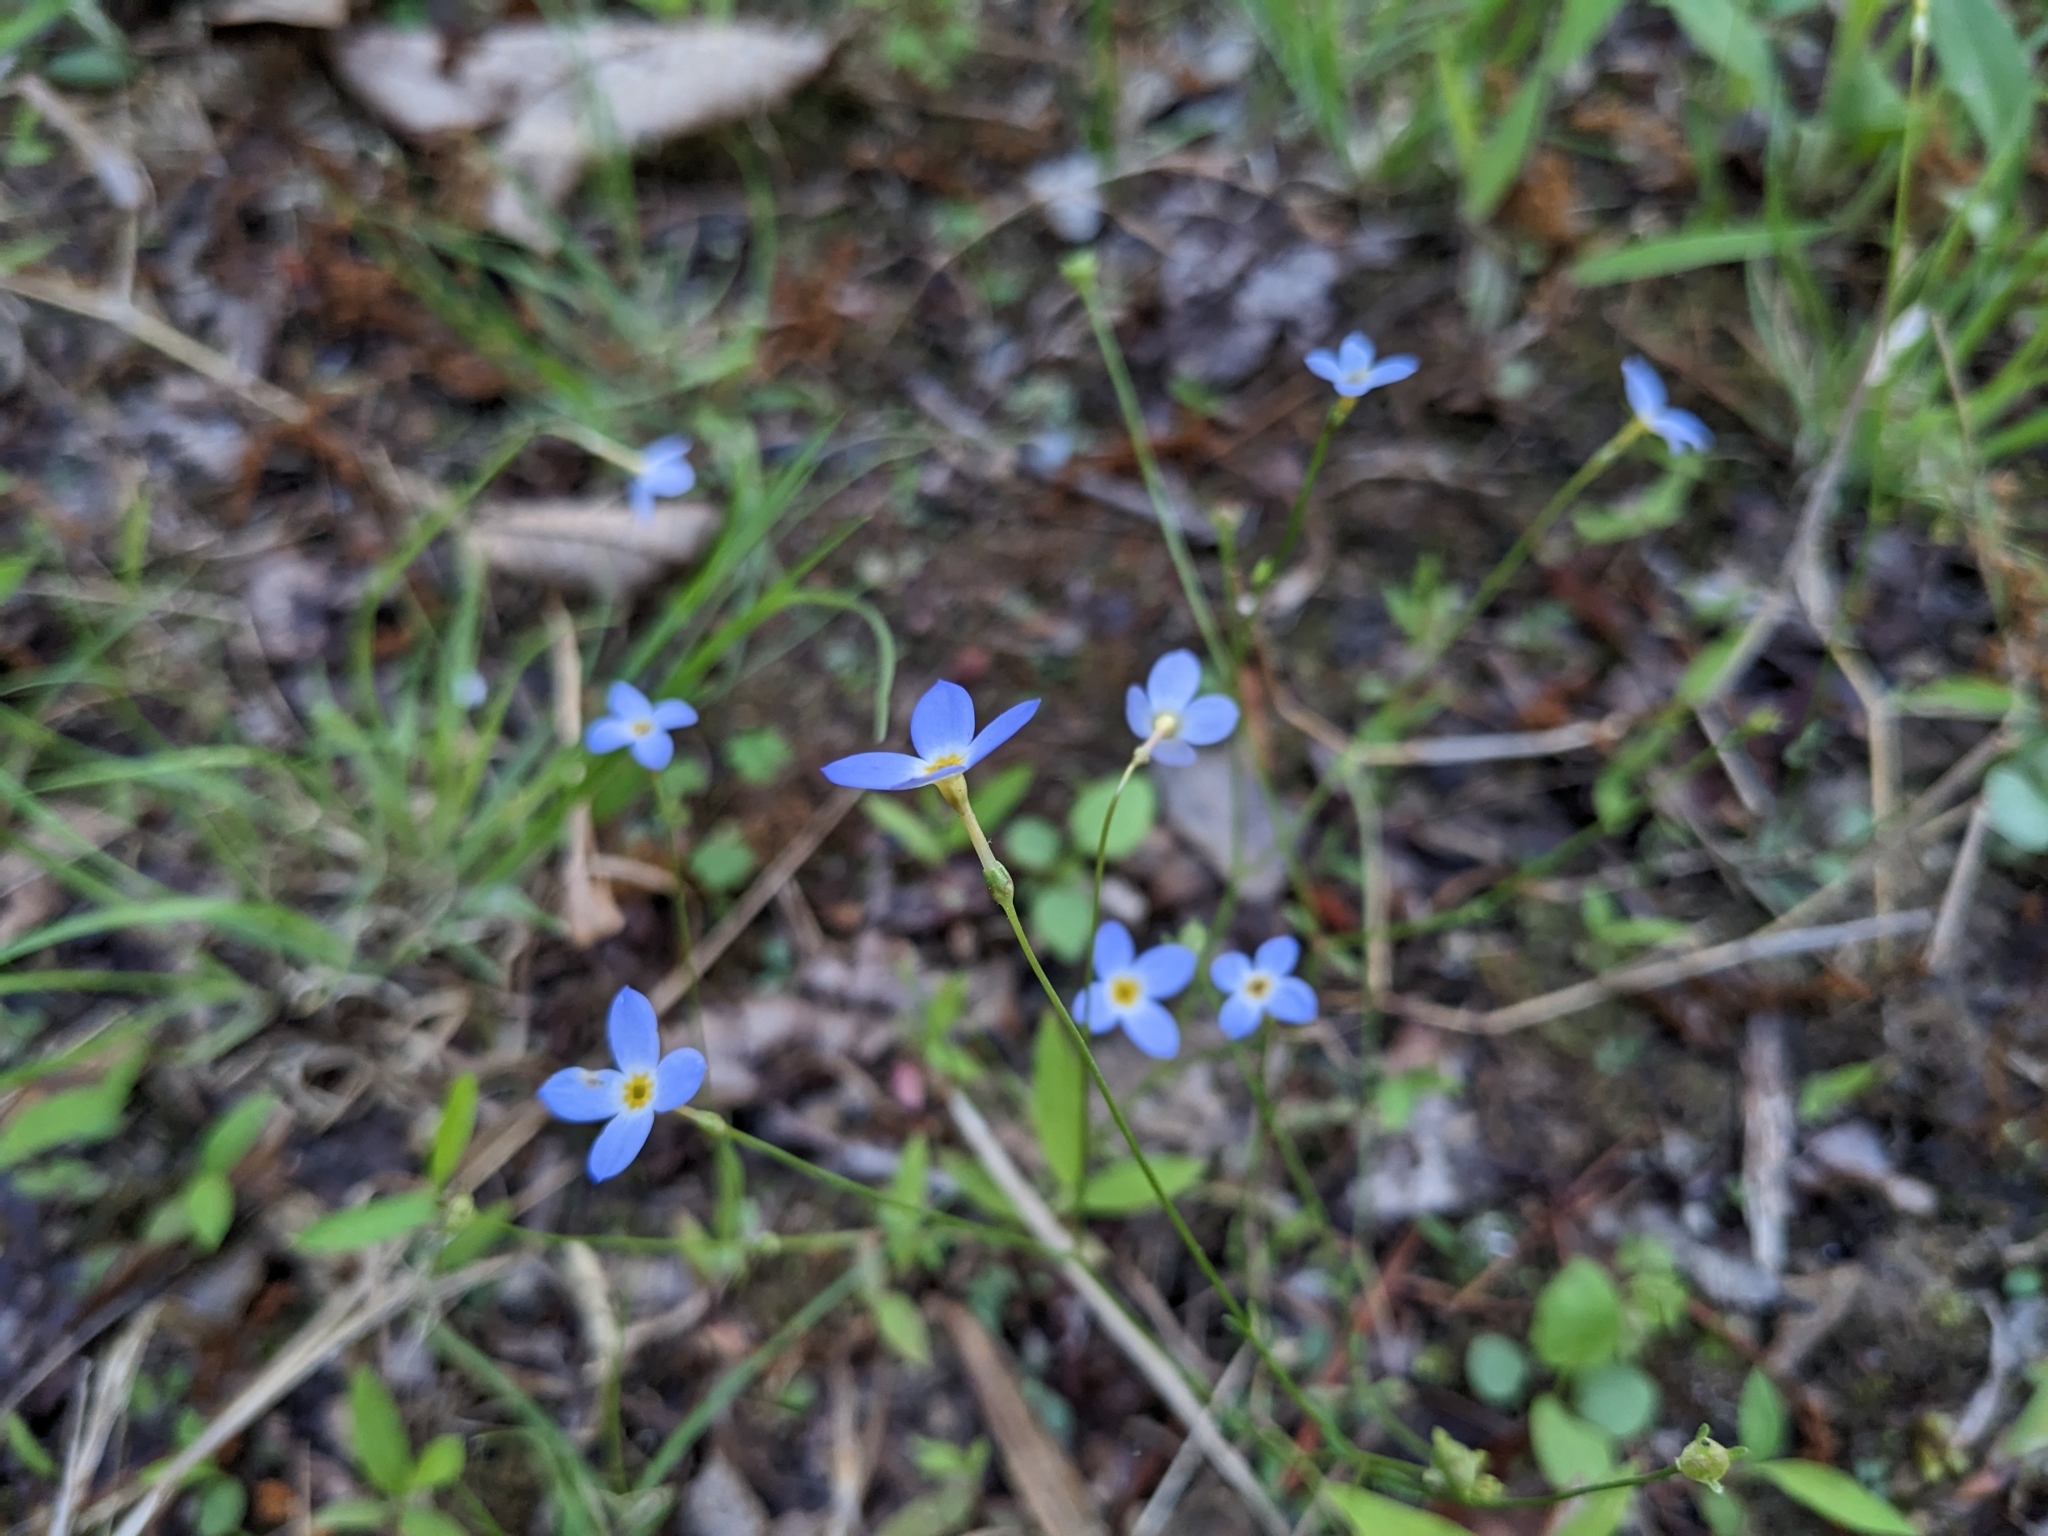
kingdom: Plantae
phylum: Tracheophyta
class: Magnoliopsida
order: Gentianales
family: Rubiaceae
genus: Houstonia
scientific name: Houstonia caerulea
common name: Bluets
